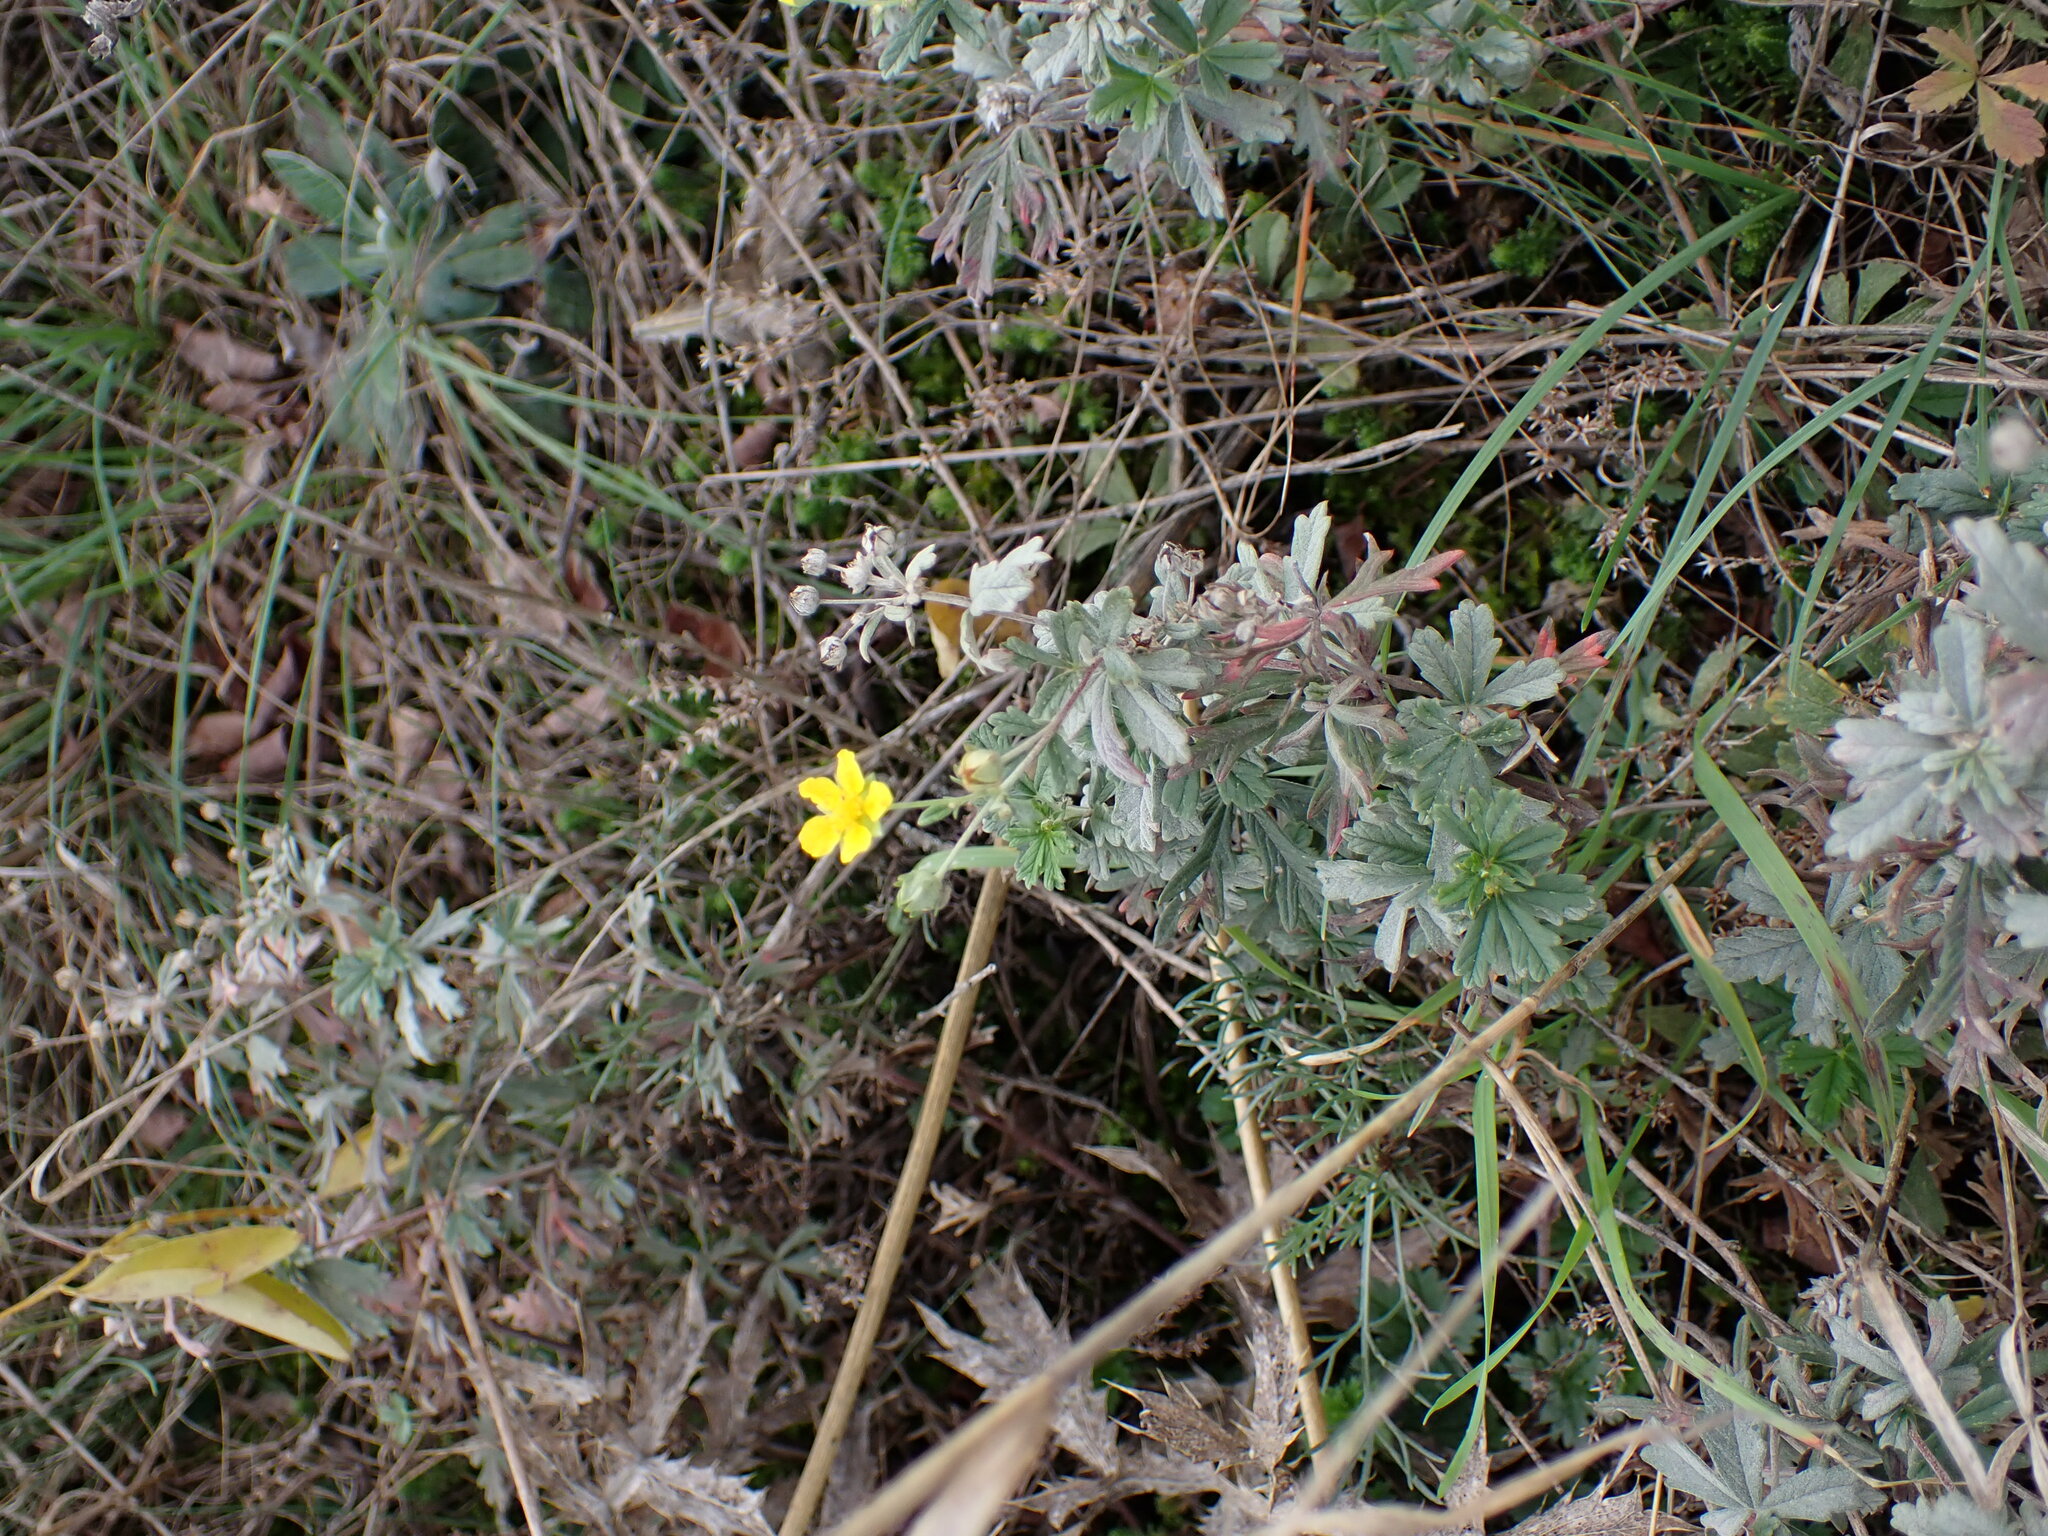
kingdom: Plantae
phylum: Tracheophyta
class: Magnoliopsida
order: Rosales
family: Rosaceae
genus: Potentilla
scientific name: Potentilla argentea
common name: Hoary cinquefoil
